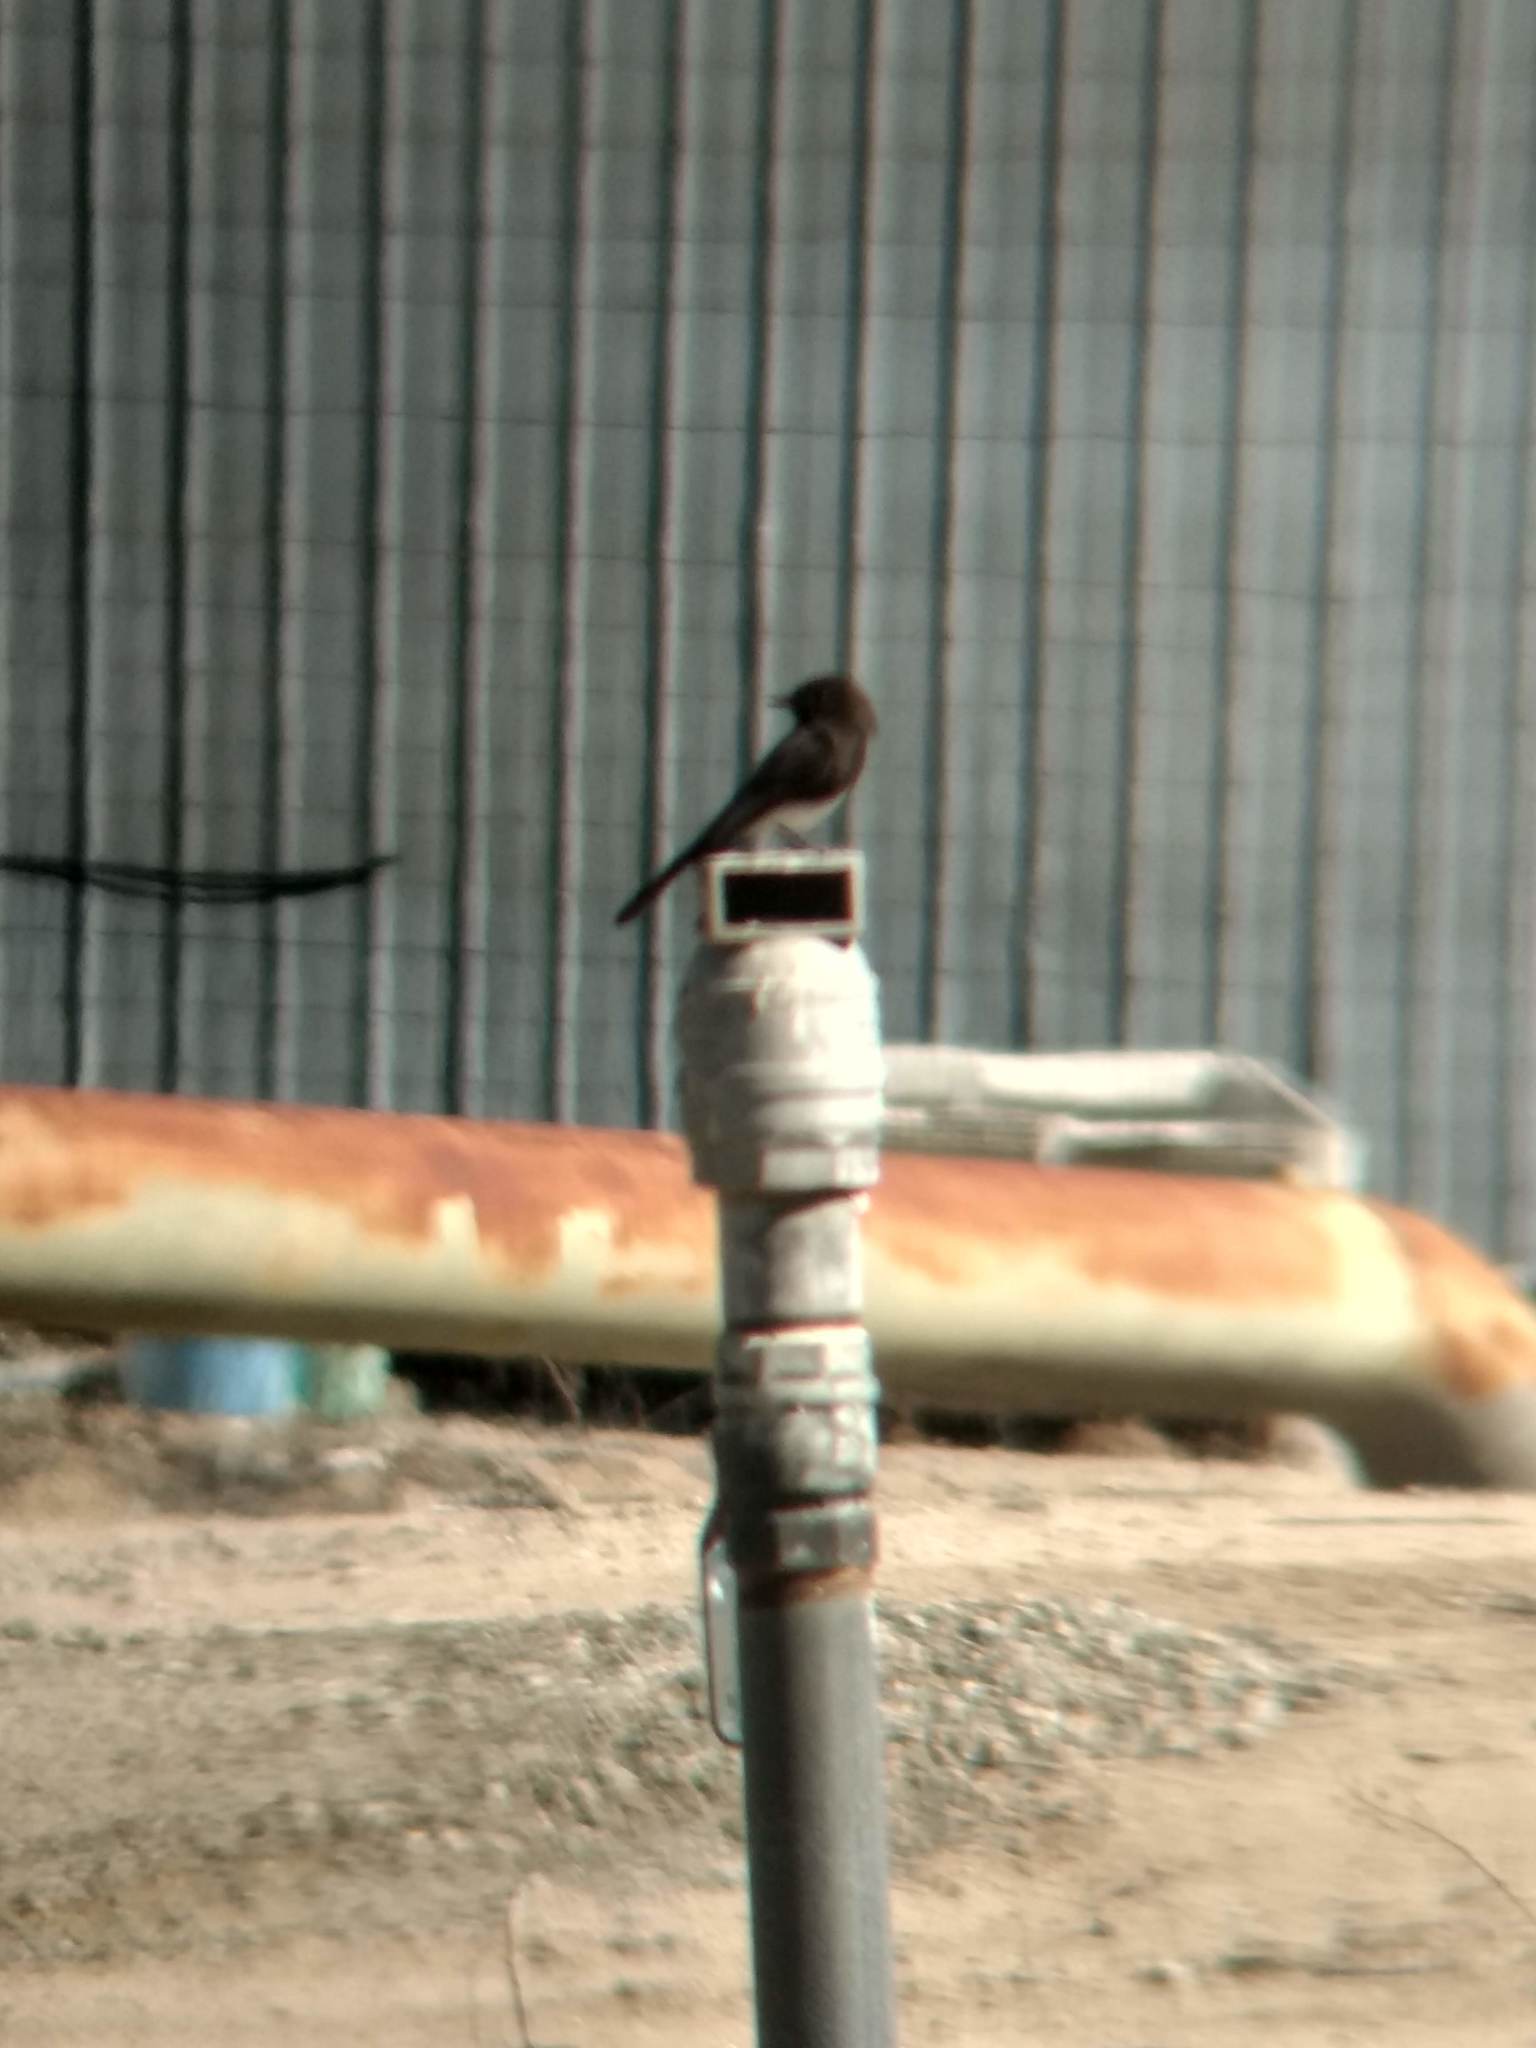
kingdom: Animalia
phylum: Chordata
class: Aves
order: Passeriformes
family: Tyrannidae
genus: Sayornis
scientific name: Sayornis nigricans
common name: Black phoebe
